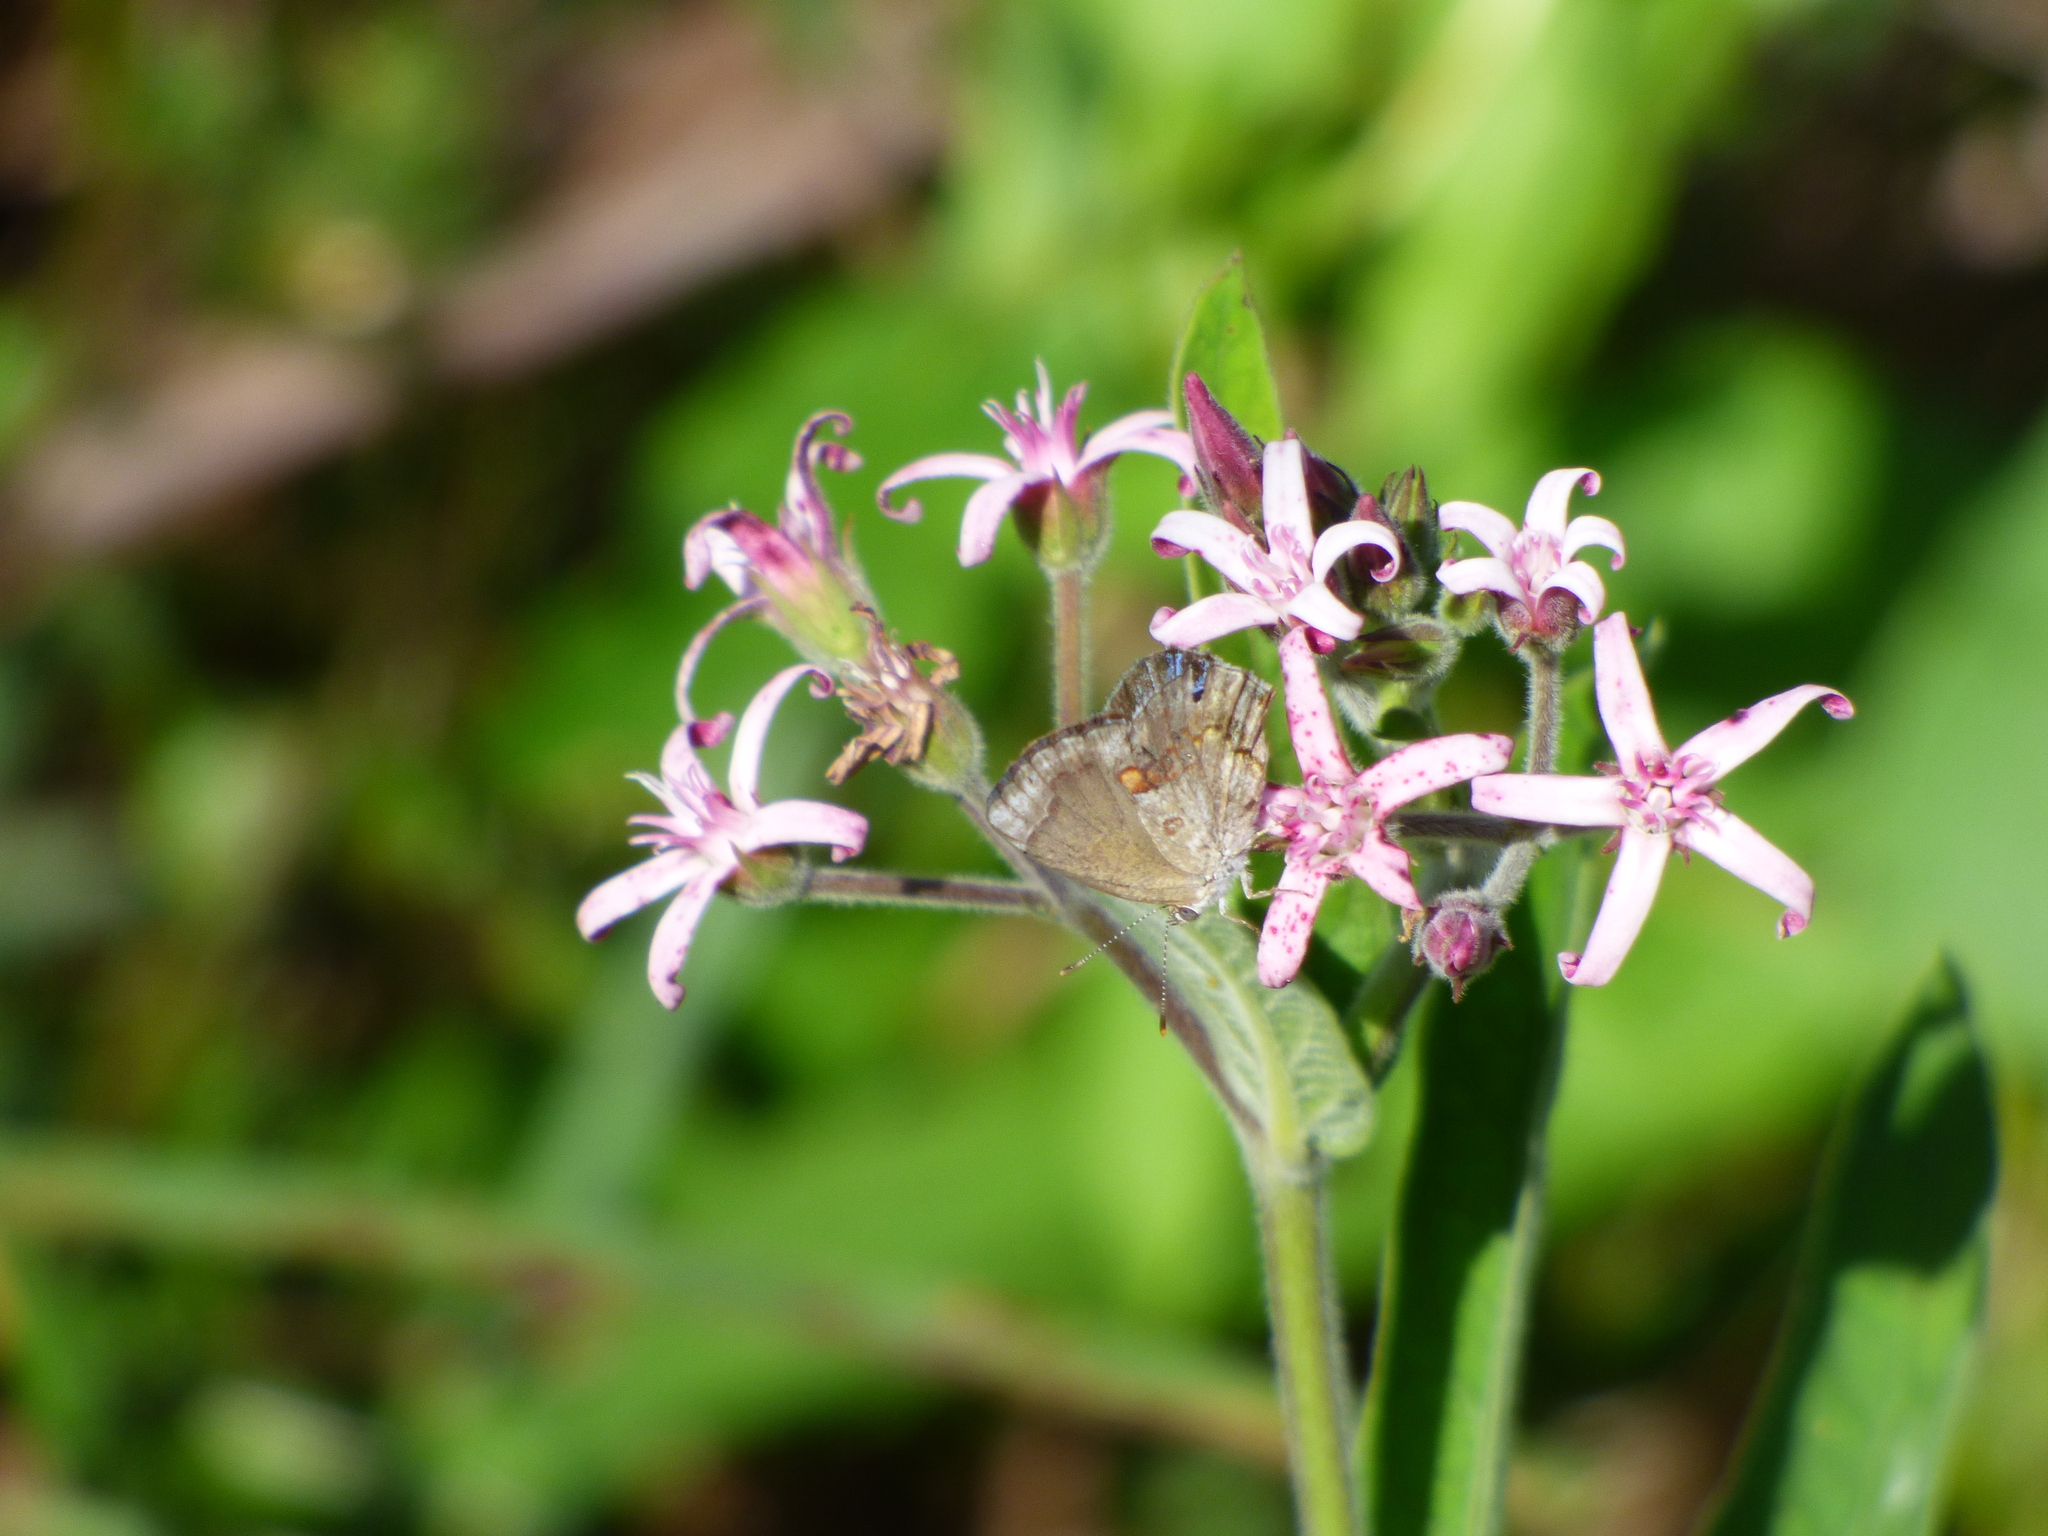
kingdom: Plantae
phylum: Tracheophyta
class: Magnoliopsida
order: Gentianales
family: Apocynaceae
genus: Oxypetalum
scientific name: Oxypetalum solanoides
